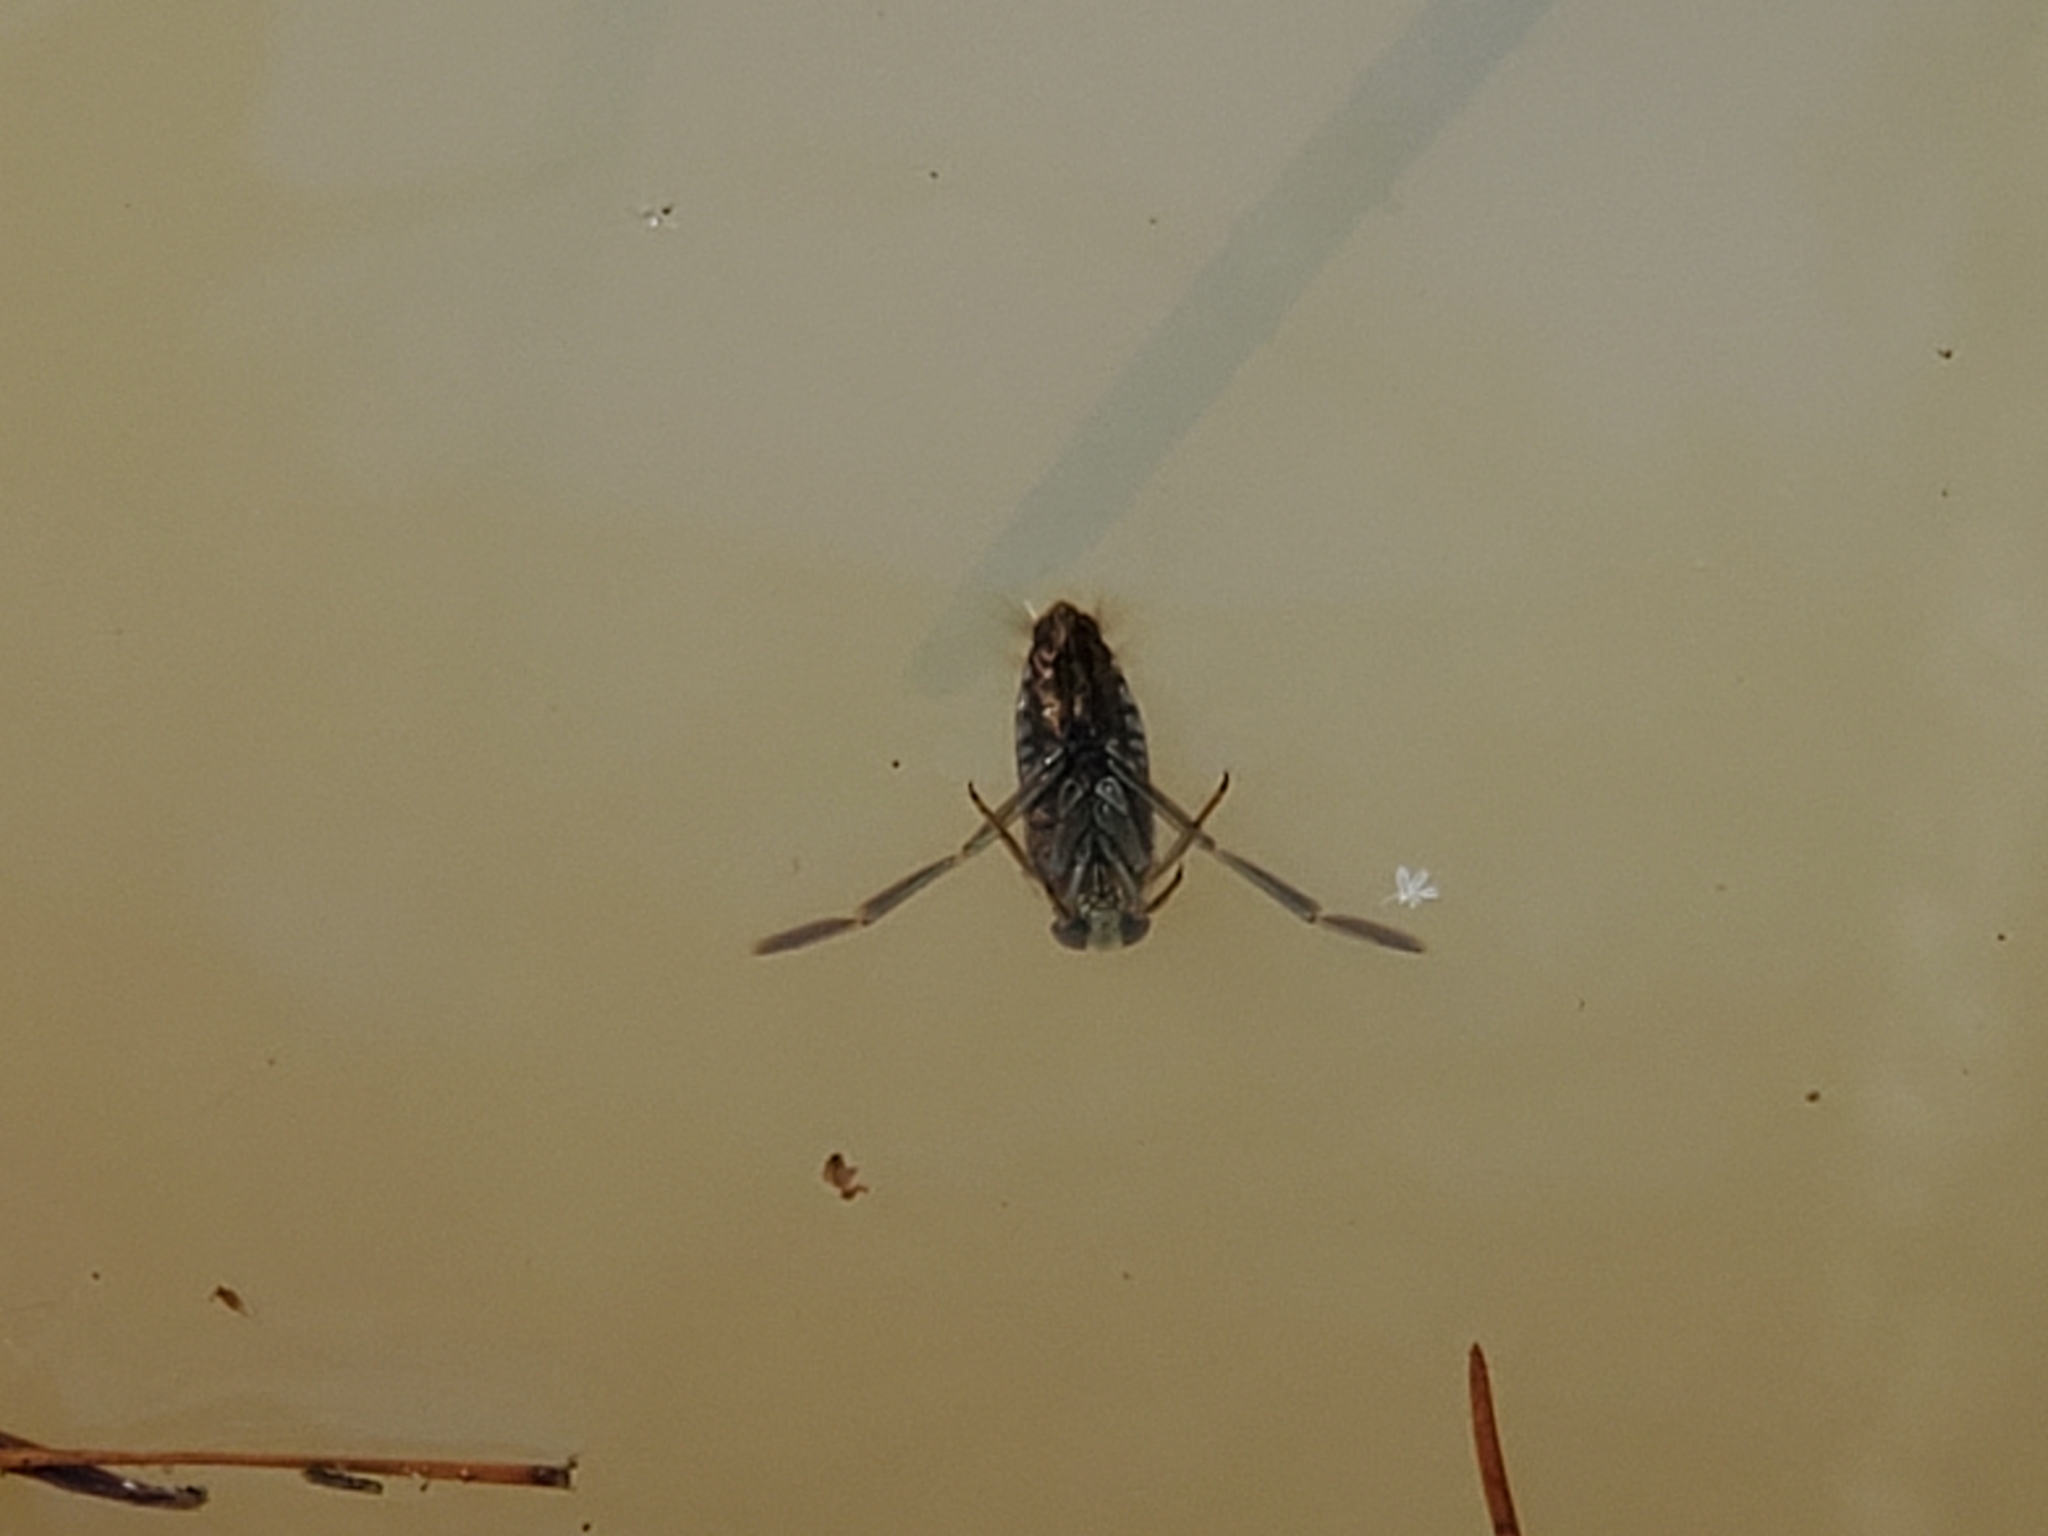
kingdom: Animalia
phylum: Arthropoda
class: Insecta
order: Hemiptera
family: Notonectidae
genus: Notonecta
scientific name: Notonecta
